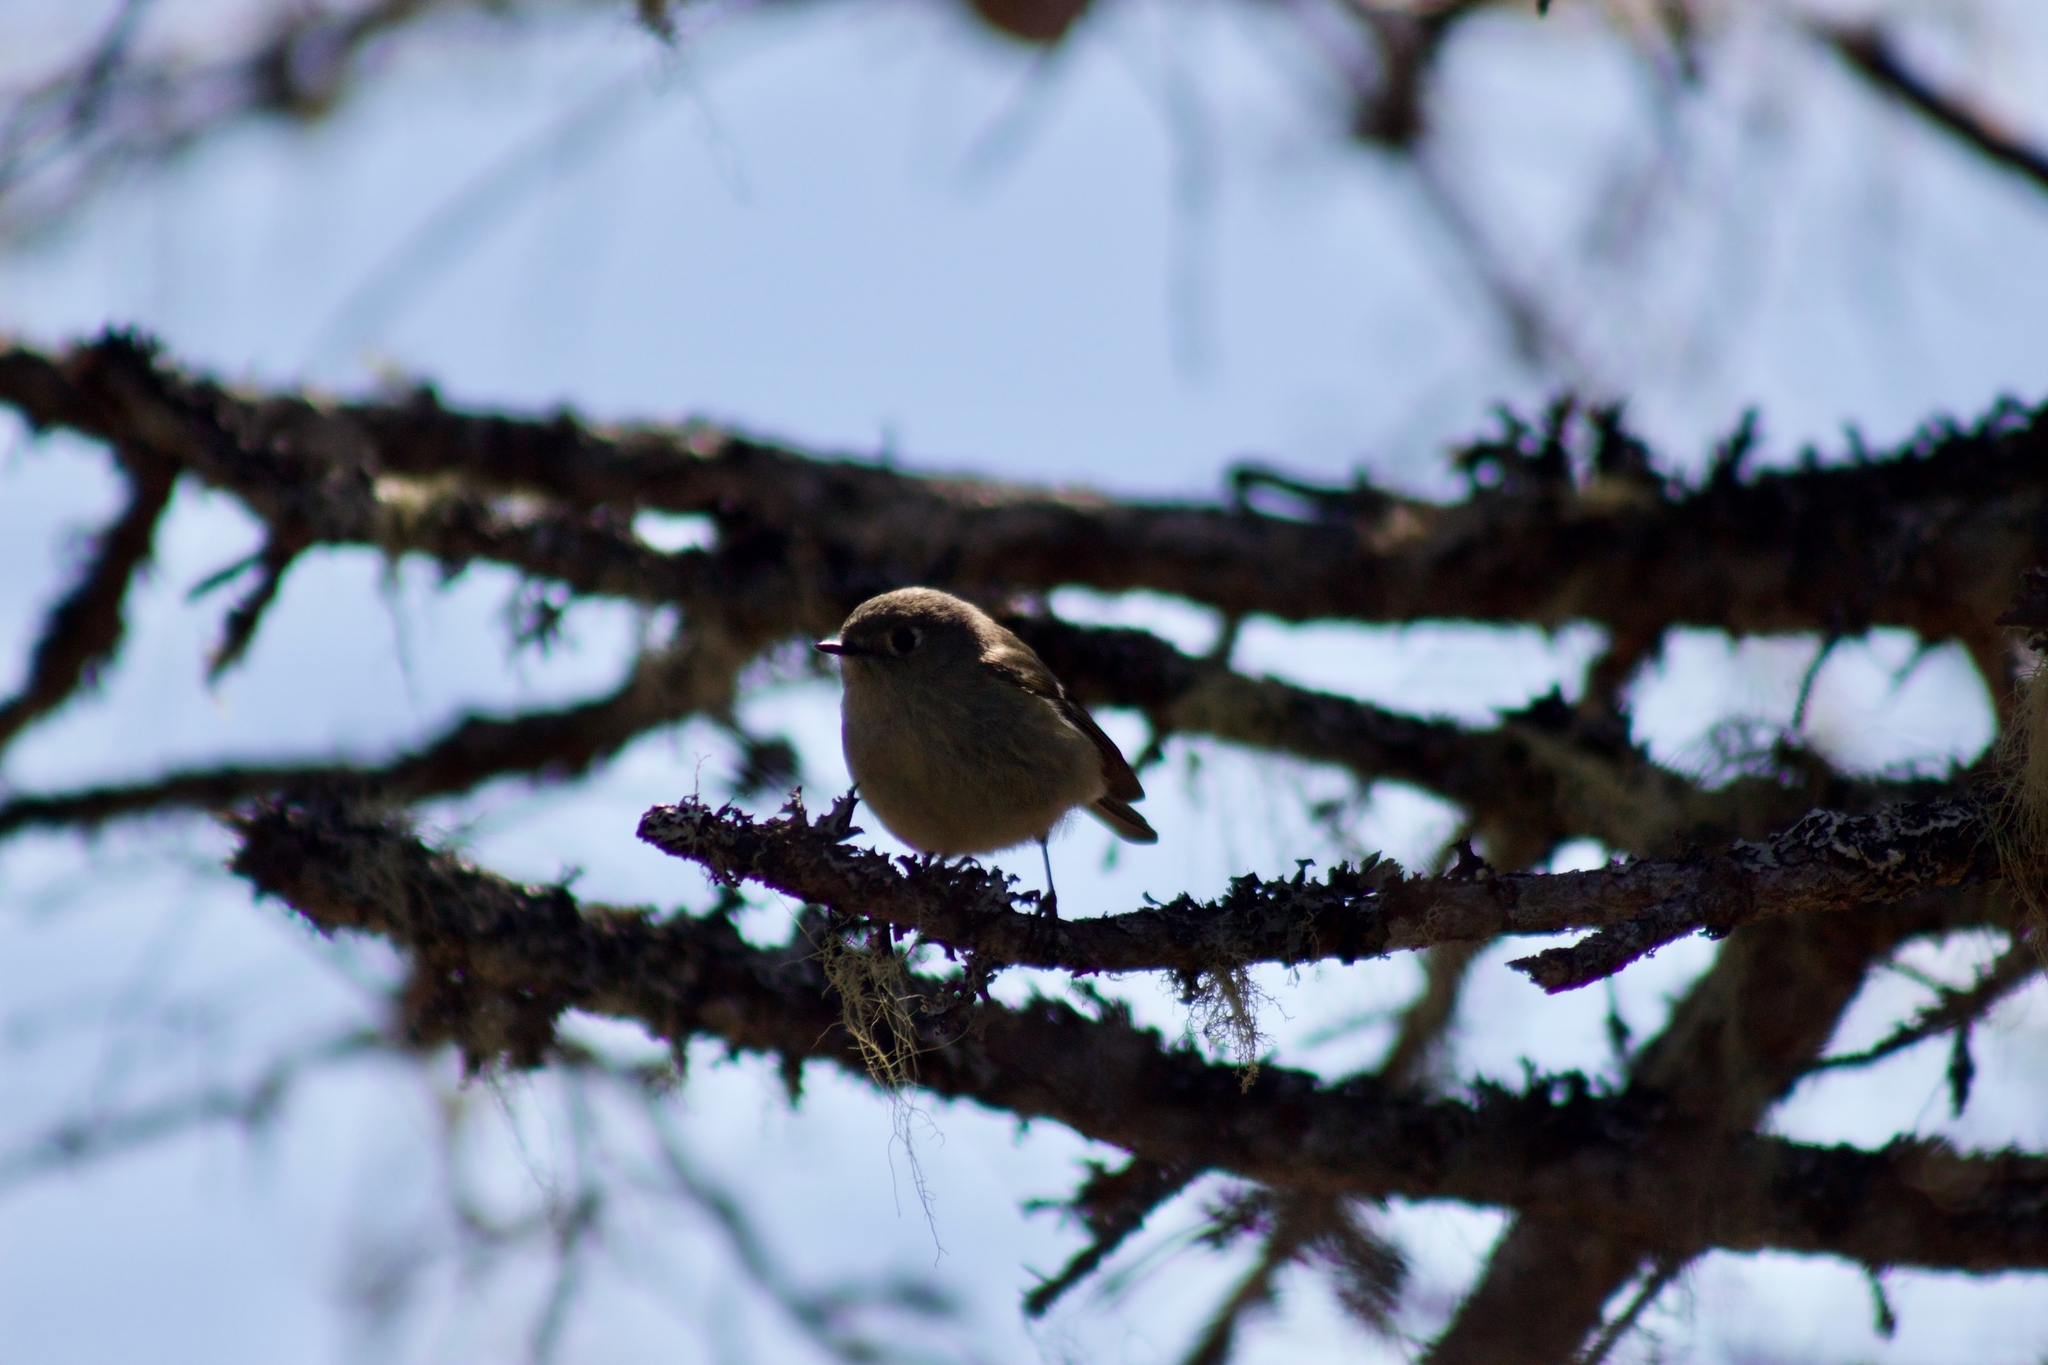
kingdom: Animalia
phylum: Chordata
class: Aves
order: Passeriformes
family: Regulidae
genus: Regulus
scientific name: Regulus calendula
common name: Ruby-crowned kinglet
